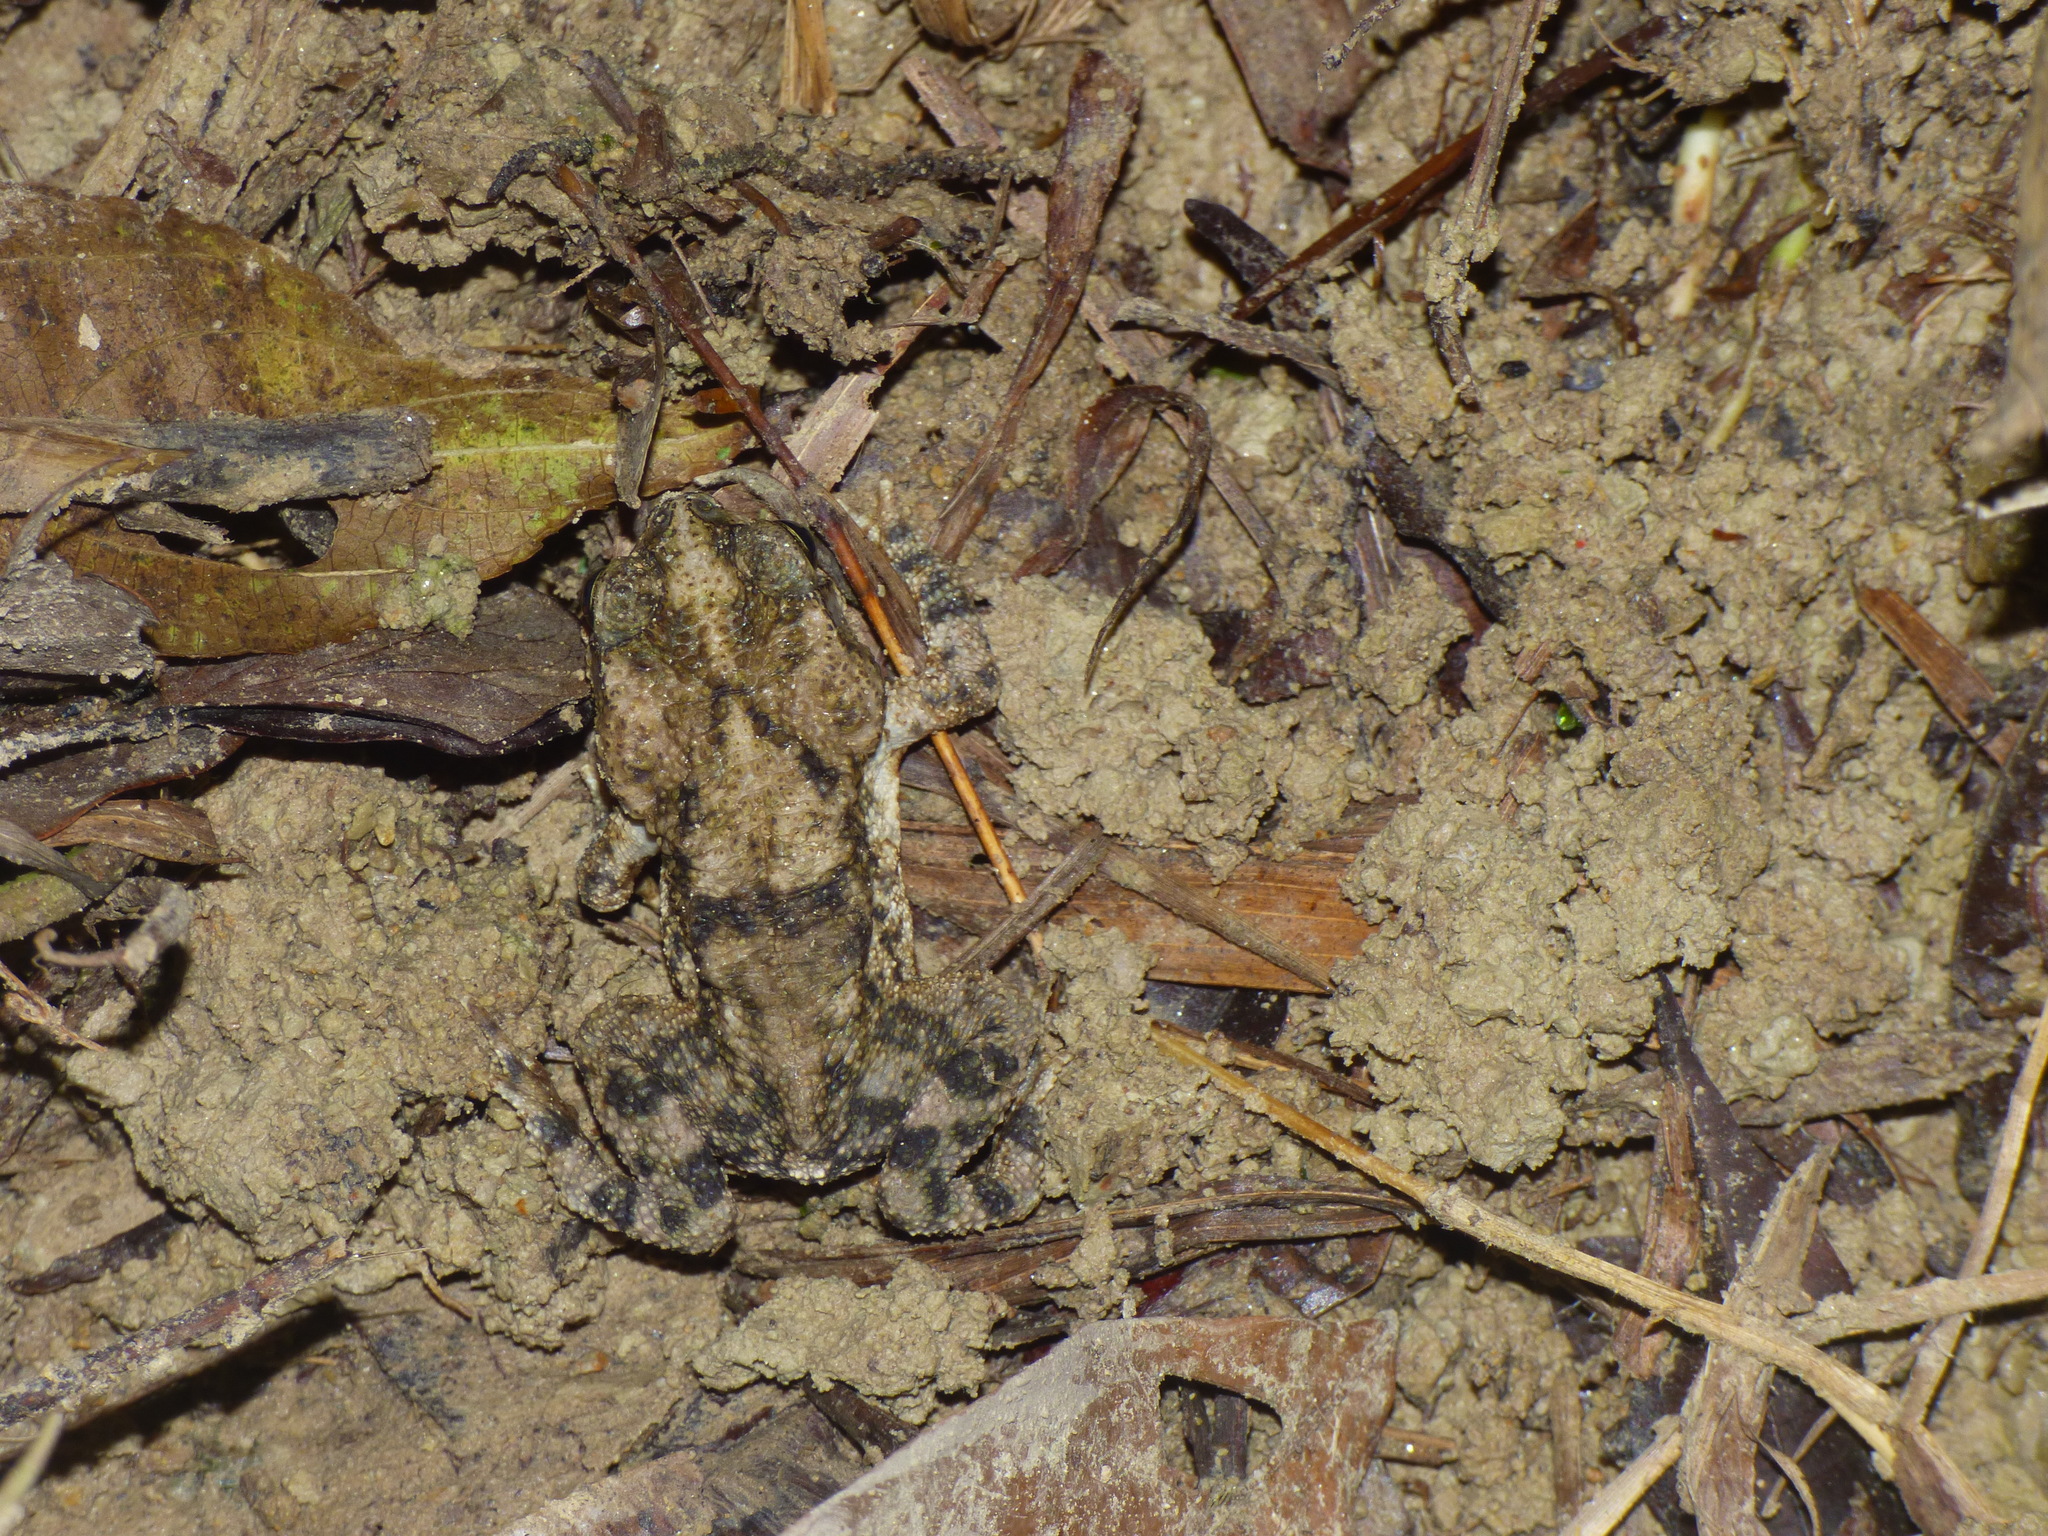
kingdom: Animalia
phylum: Chordata
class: Amphibia
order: Anura
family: Bufonidae
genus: Rhinella
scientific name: Rhinella horribilis
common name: Mesoamerican cane toad
